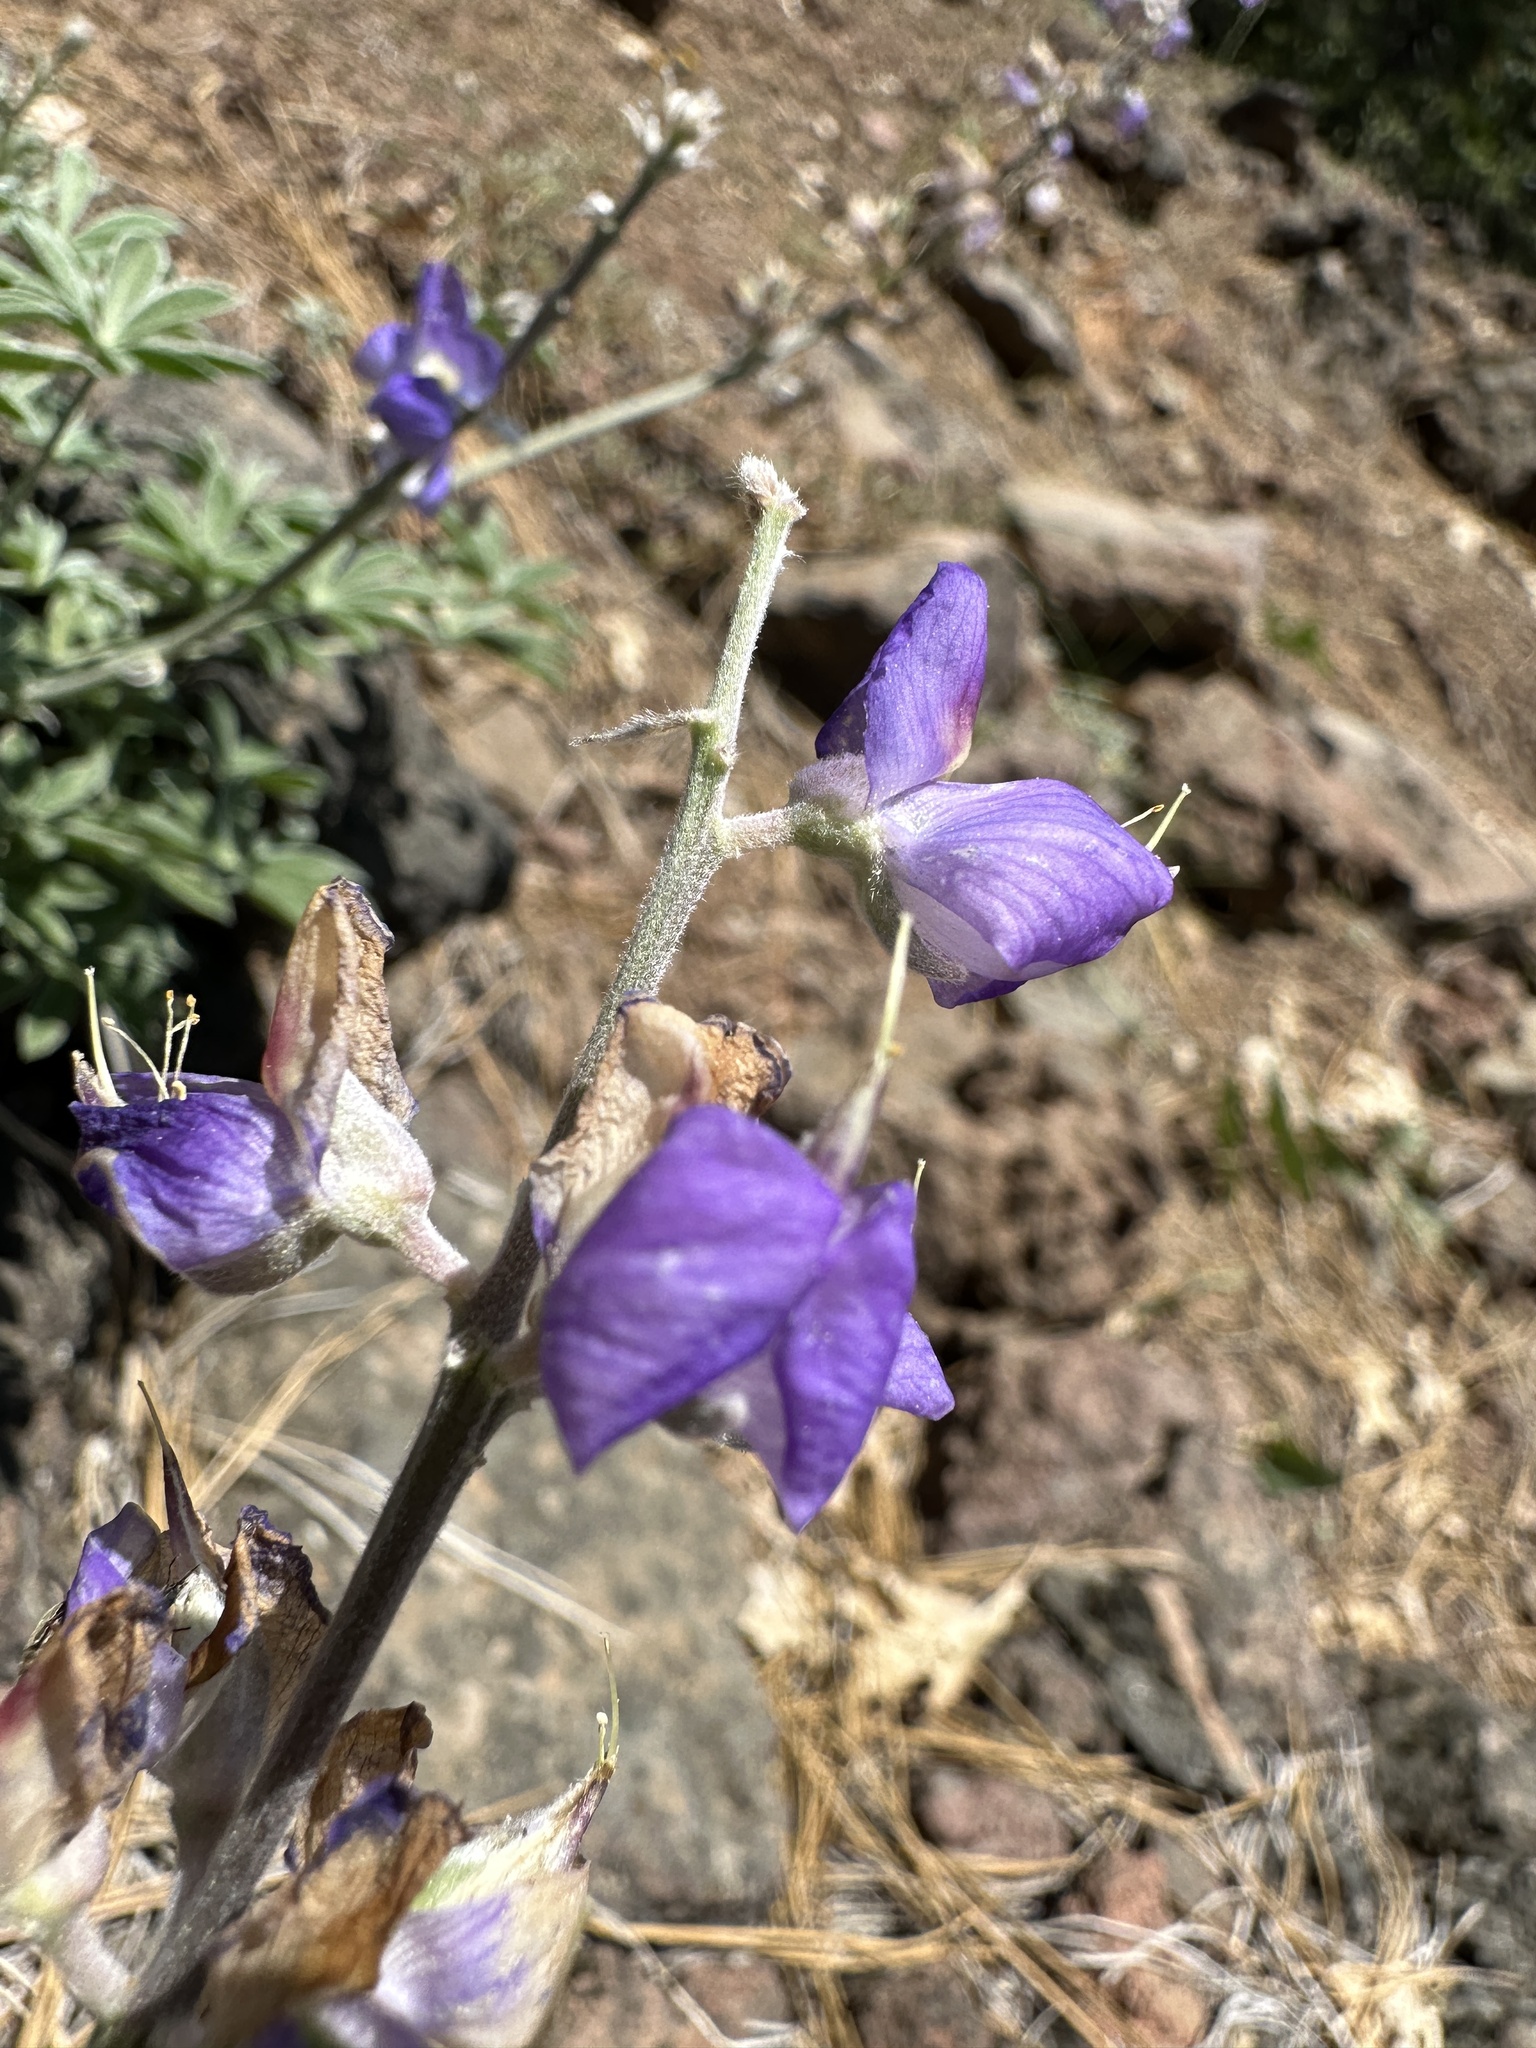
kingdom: Plantae
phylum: Tracheophyta
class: Magnoliopsida
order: Fabales
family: Fabaceae
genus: Lupinus
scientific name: Lupinus grayi
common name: Sierra lupine
